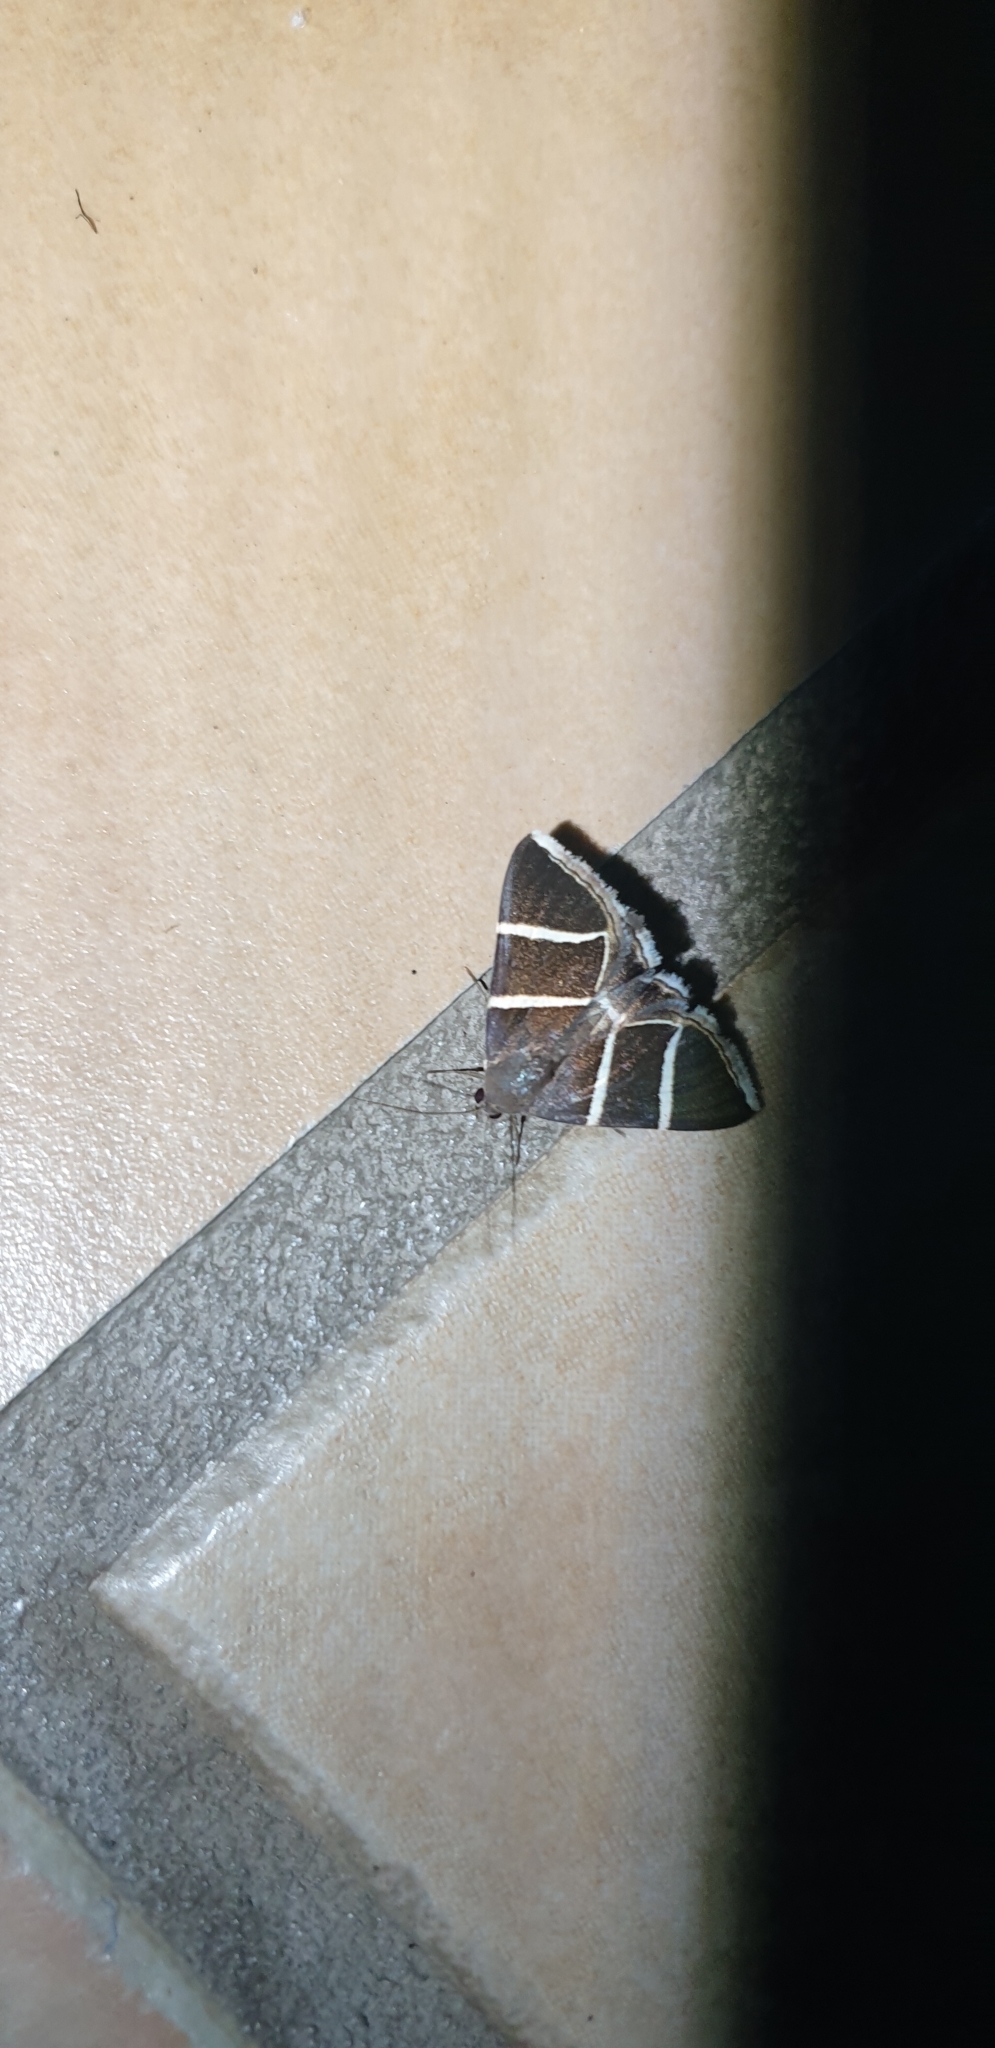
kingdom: Animalia
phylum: Arthropoda
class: Insecta
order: Lepidoptera
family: Erebidae
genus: Grammodes
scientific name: Grammodes justa
